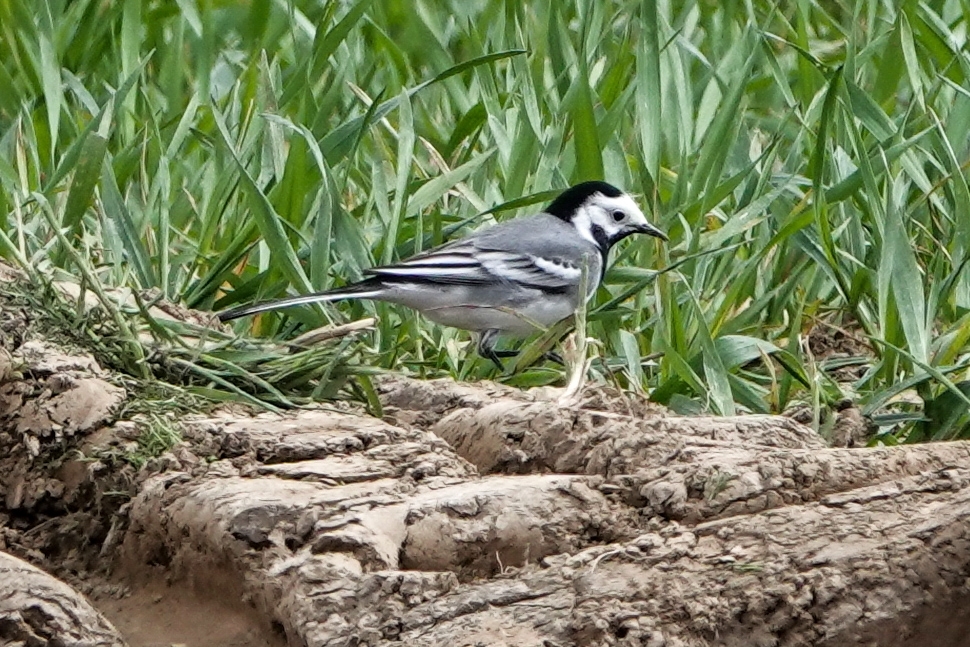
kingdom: Animalia
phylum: Chordata
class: Aves
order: Passeriformes
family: Motacillidae
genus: Motacilla
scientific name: Motacilla alba
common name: White wagtail
